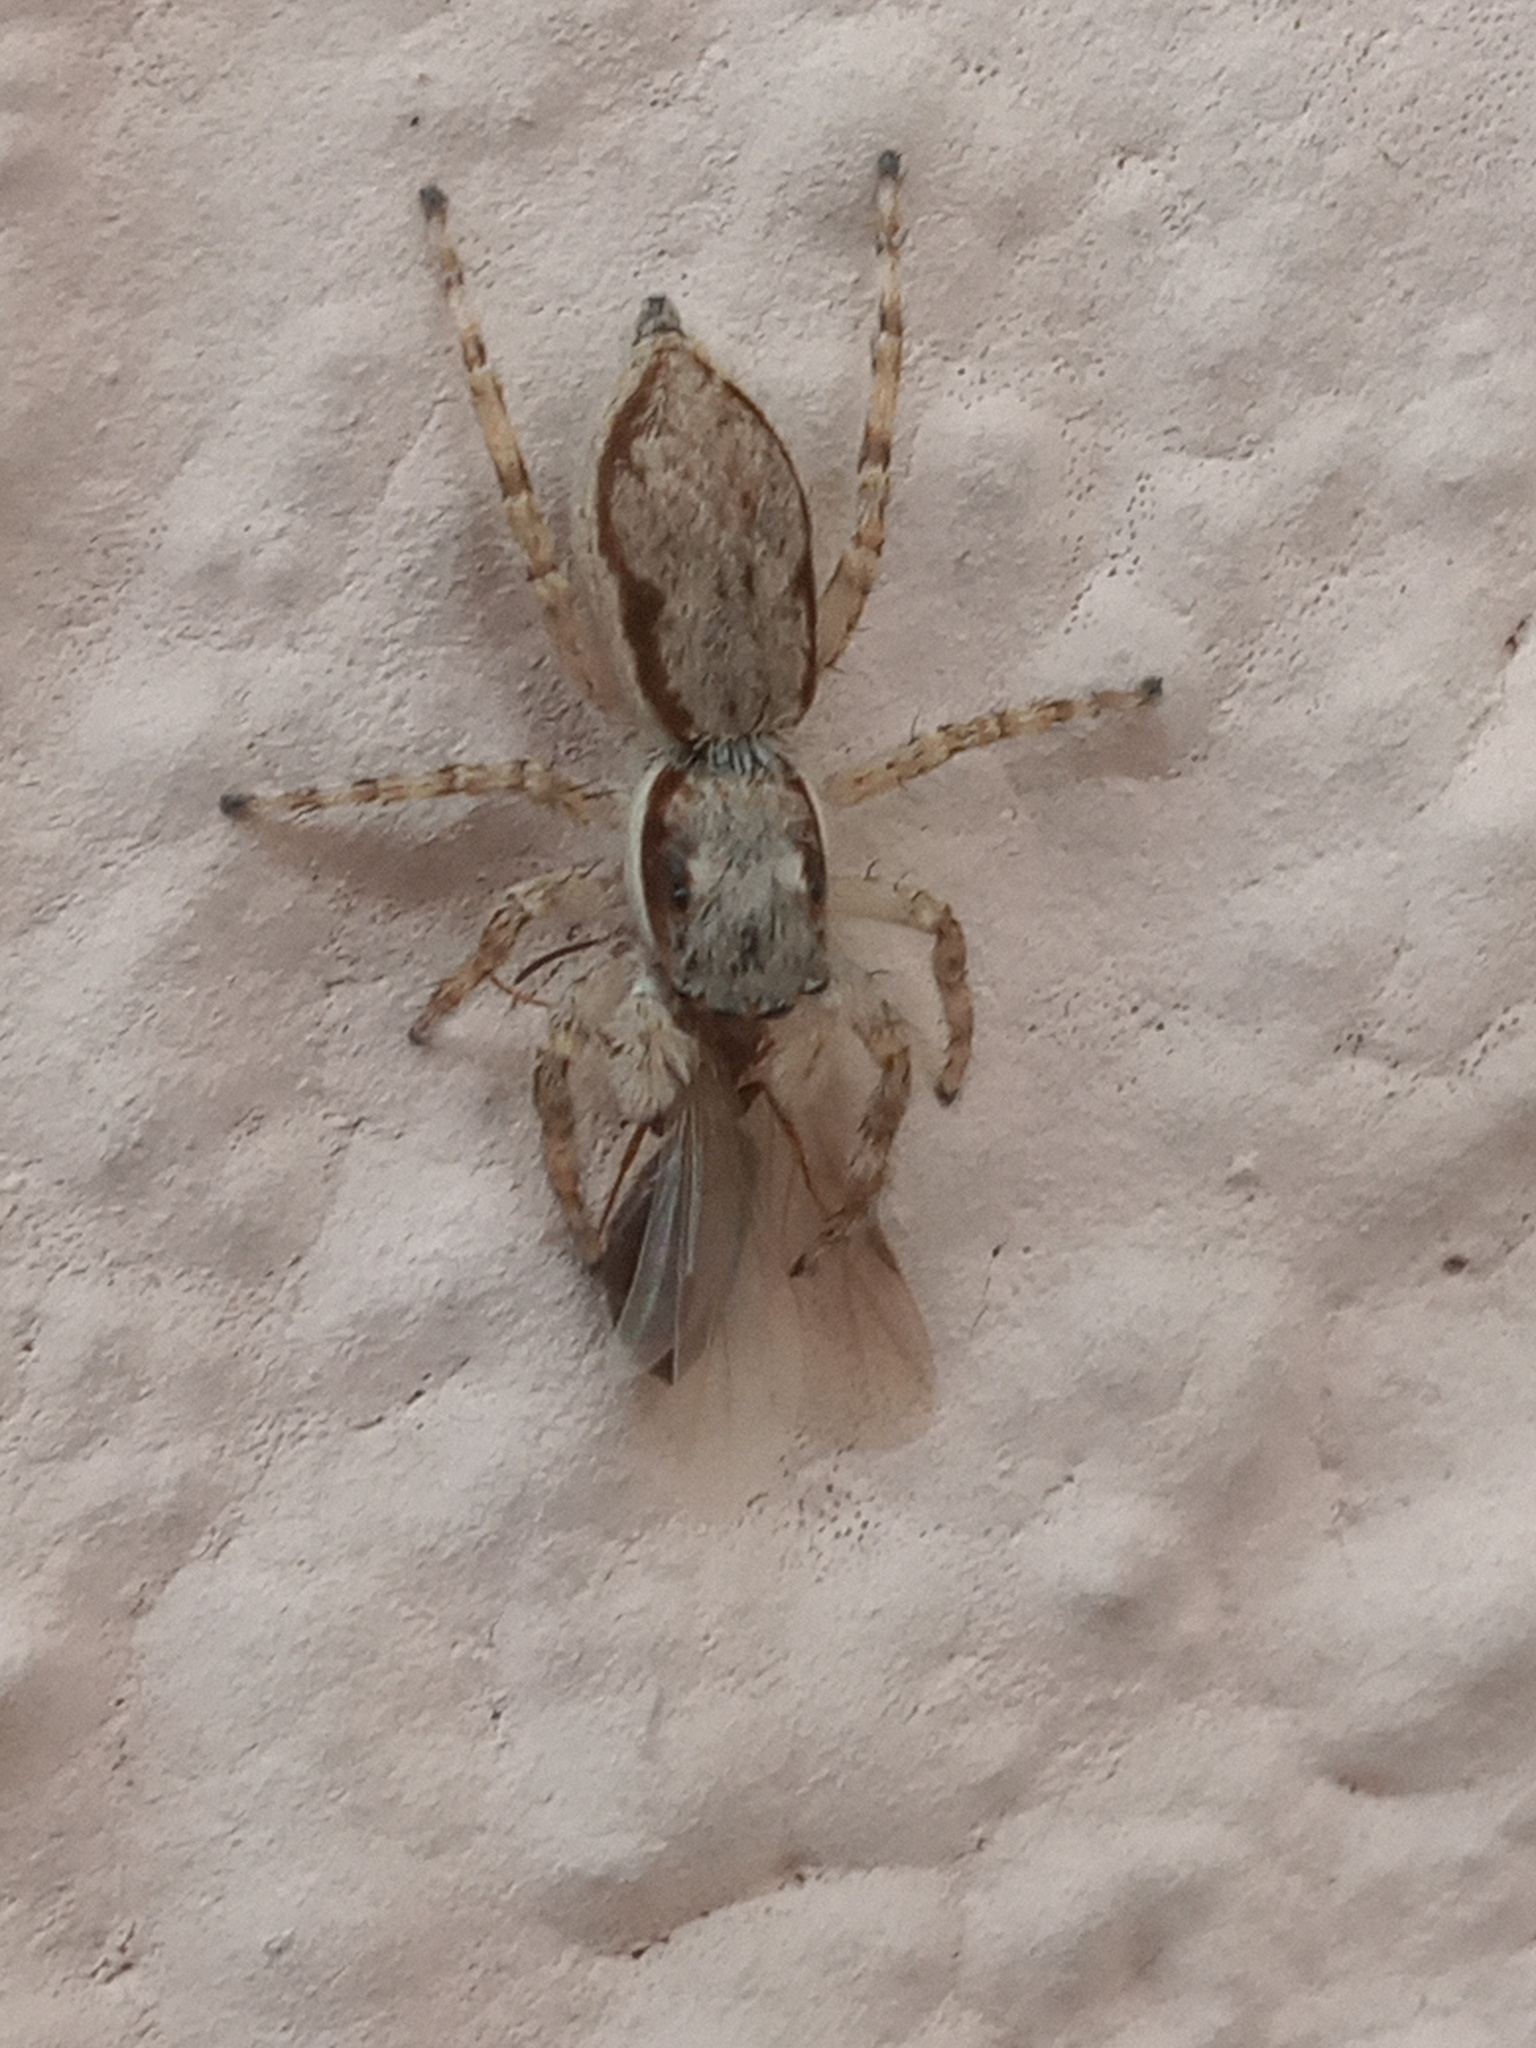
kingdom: Animalia
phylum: Arthropoda
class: Arachnida
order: Araneae
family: Salticidae
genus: Menemerus
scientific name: Menemerus bivittatus
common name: Gray wall jumper
